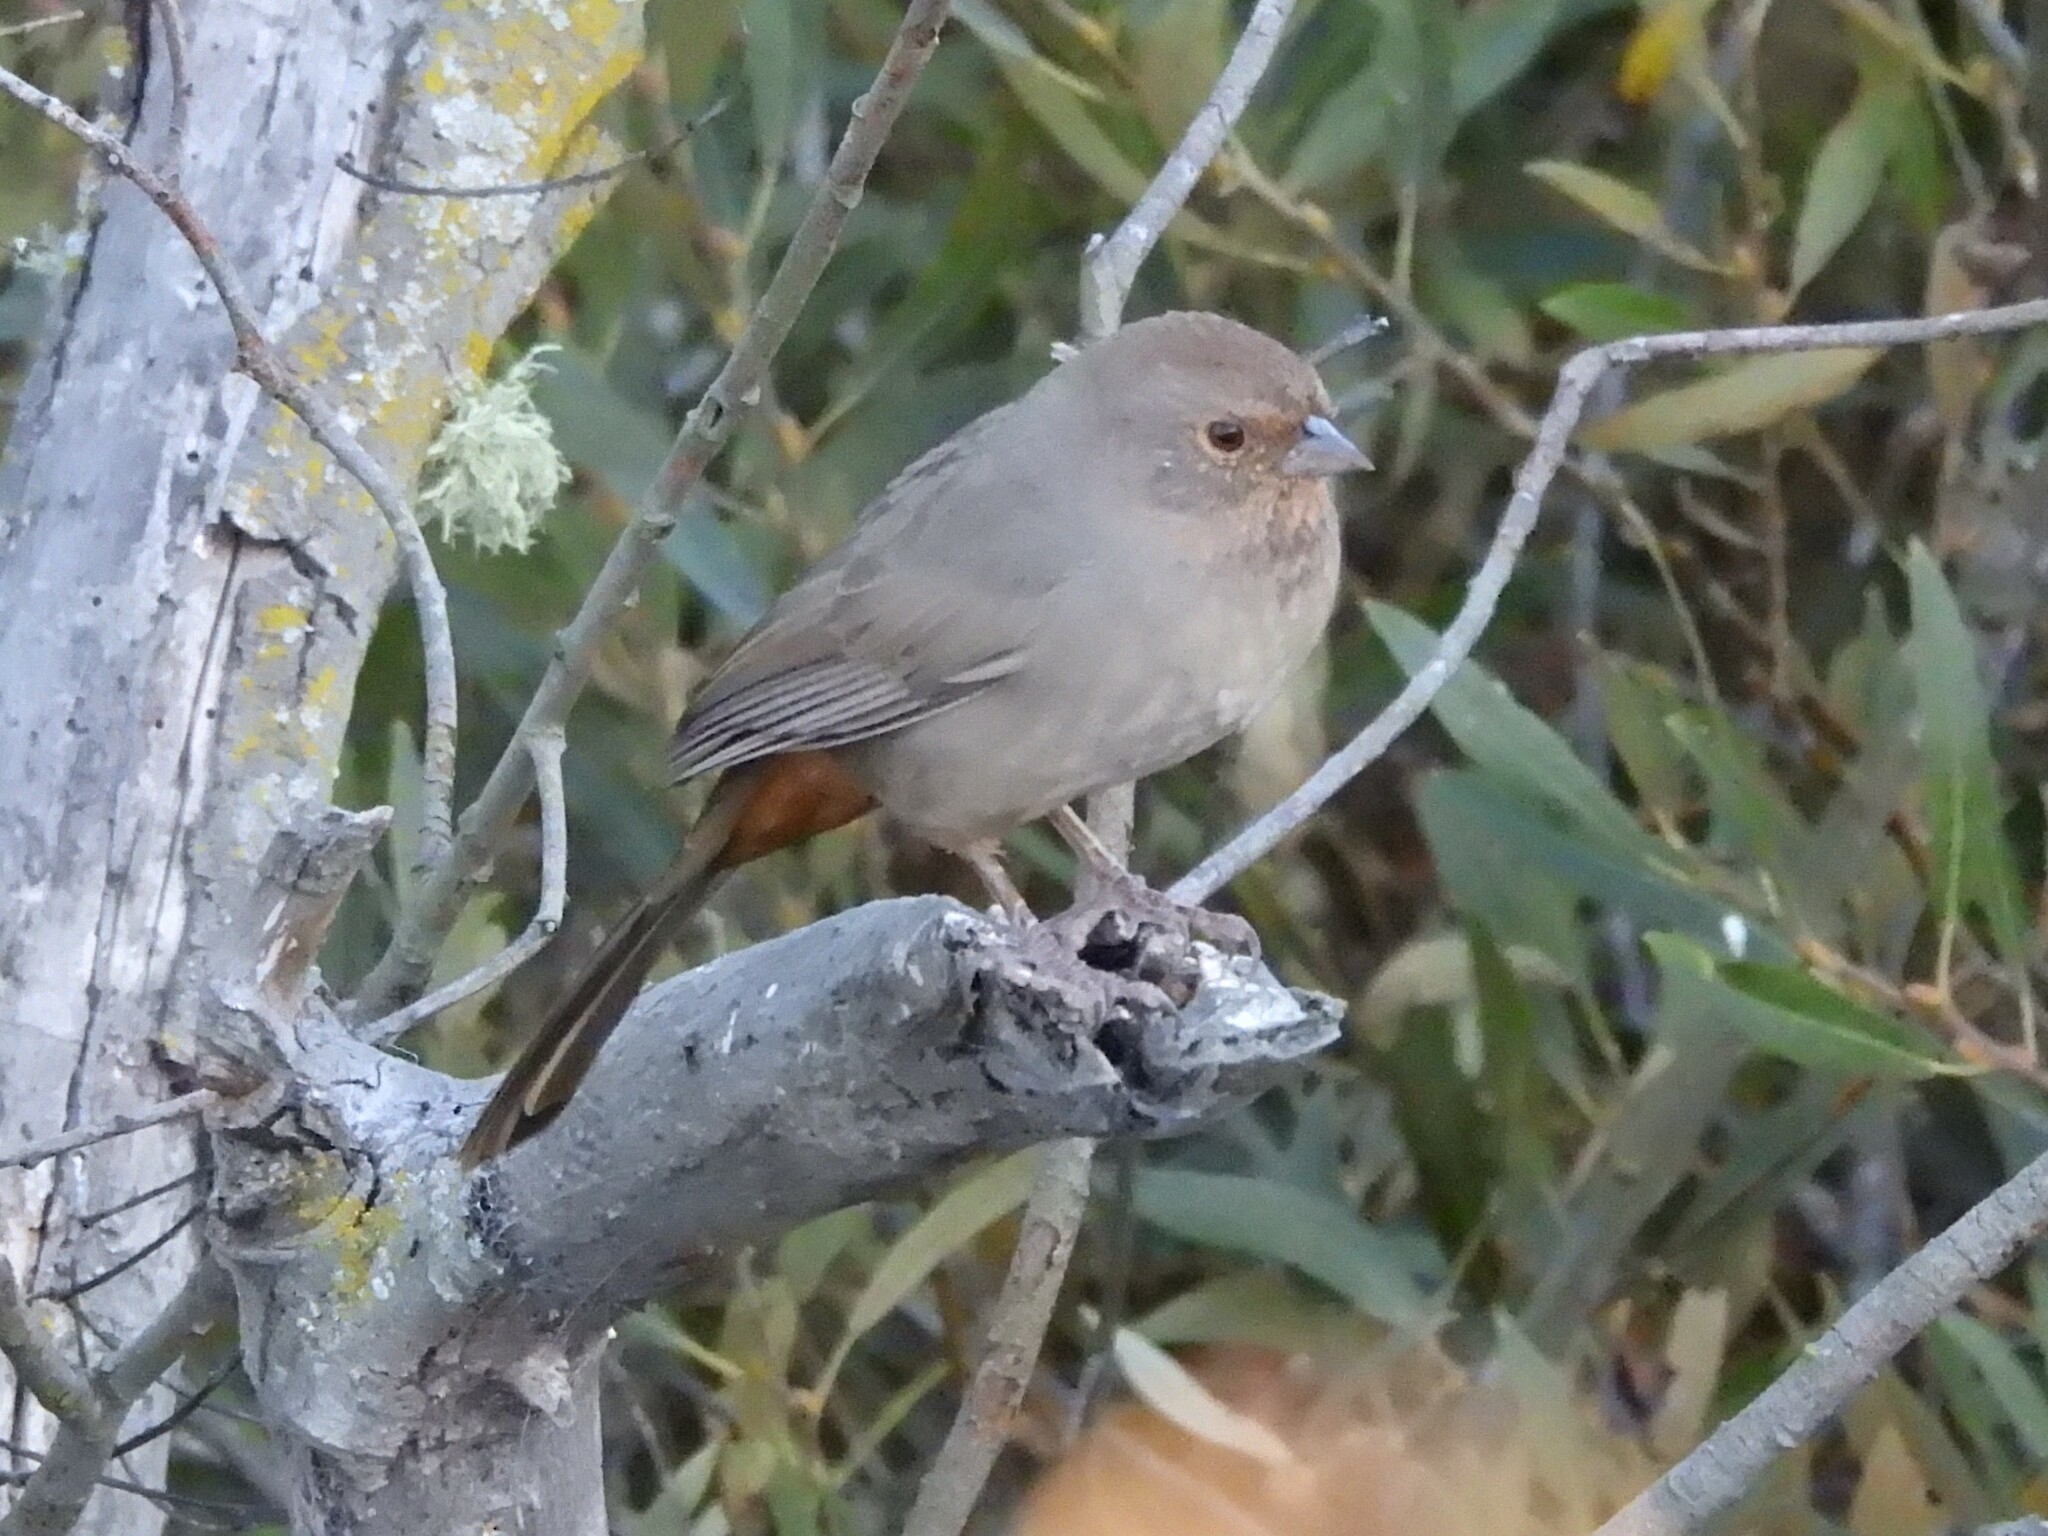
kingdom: Animalia
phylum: Chordata
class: Aves
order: Passeriformes
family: Passerellidae
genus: Melozone
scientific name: Melozone crissalis
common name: California towhee
